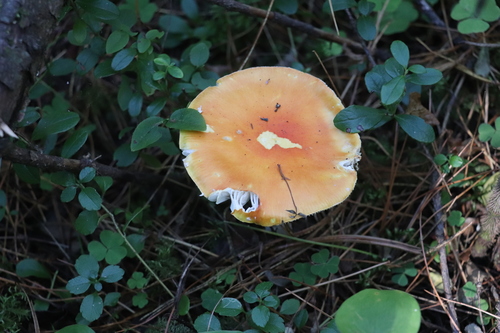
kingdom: Fungi
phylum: Basidiomycota
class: Agaricomycetes
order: Agaricales
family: Amanitaceae
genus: Amanita
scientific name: Amanita muscaria
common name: Fly agaric
